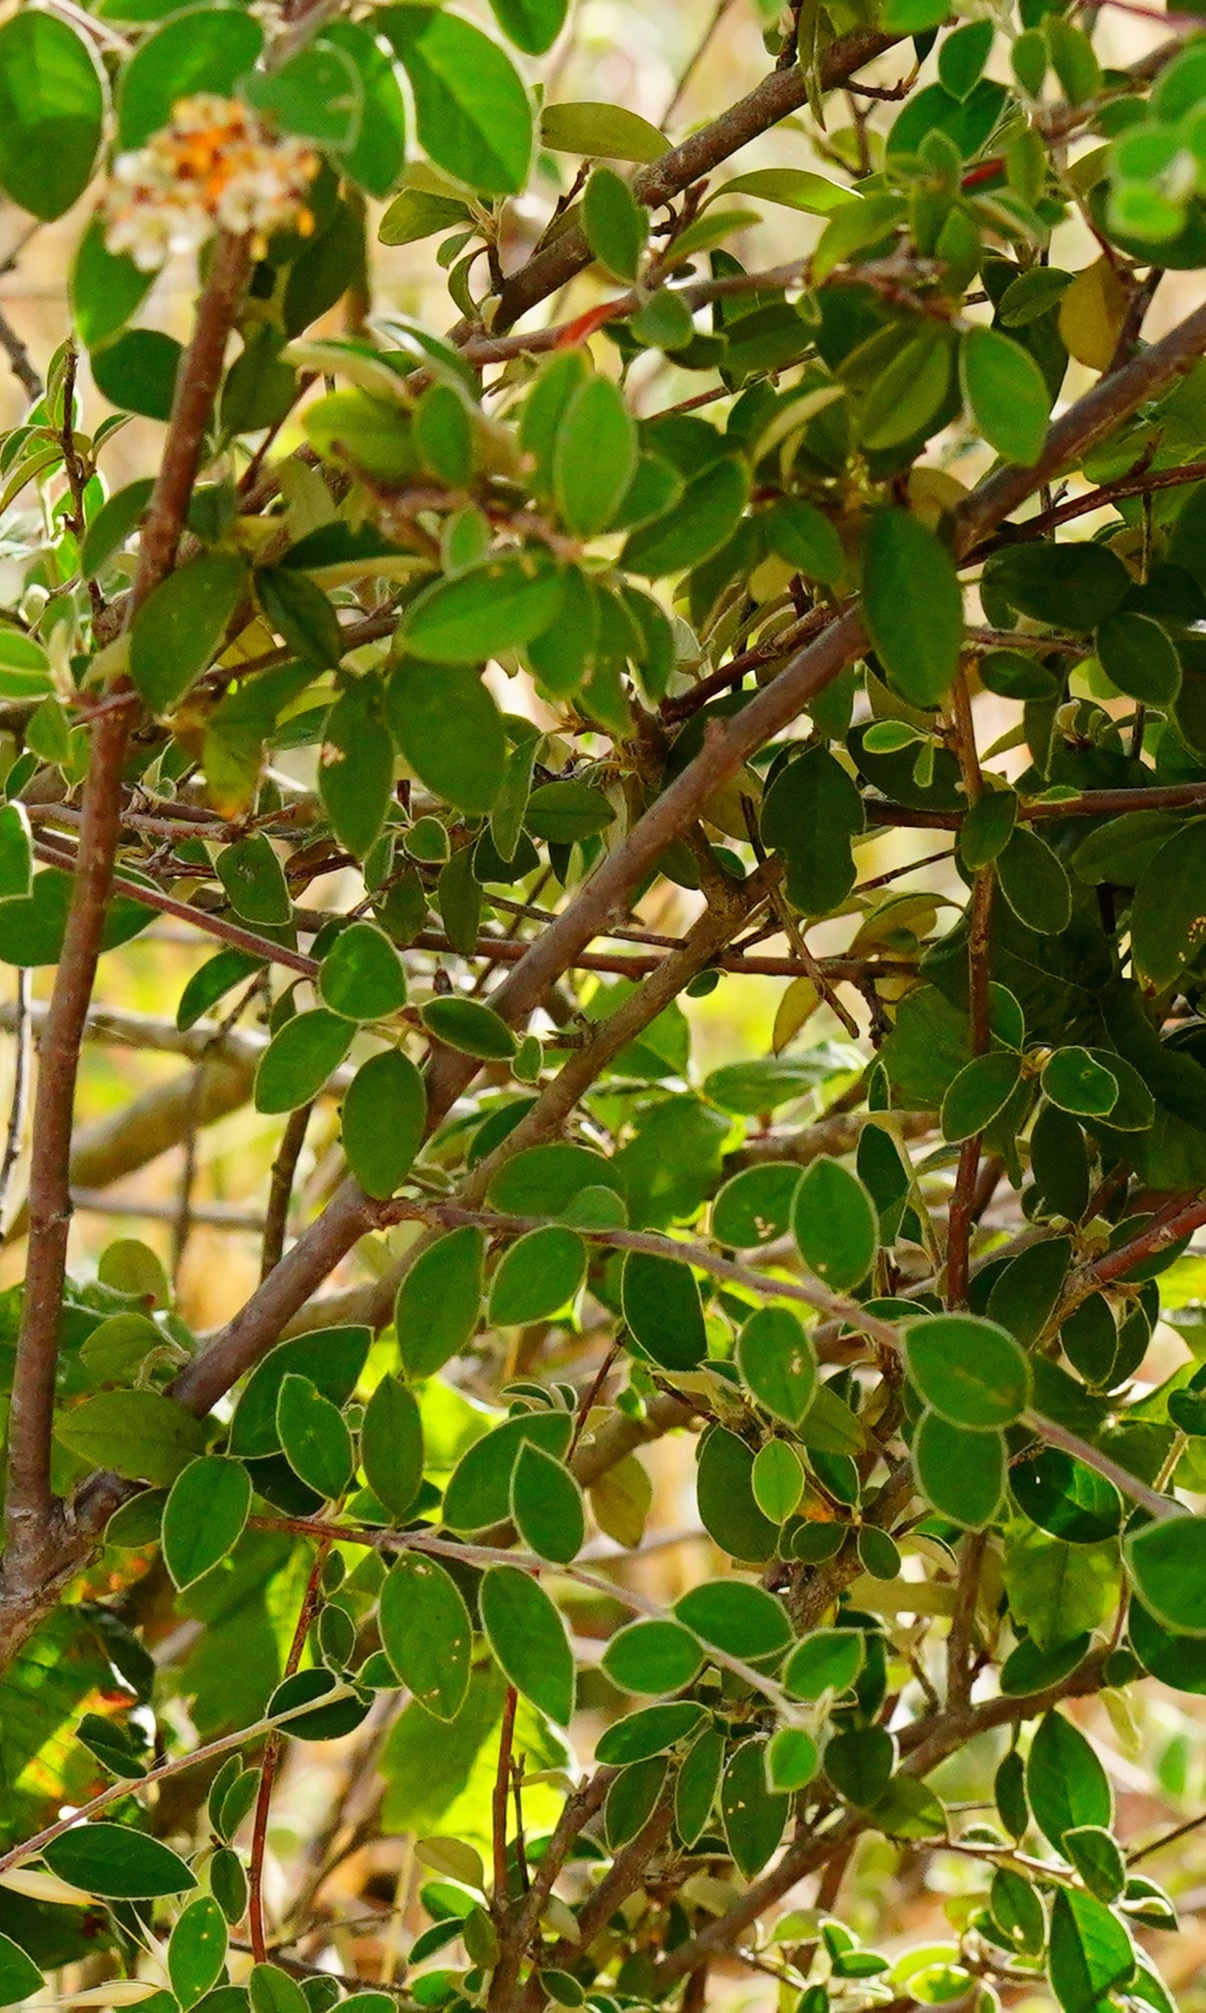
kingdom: Plantae
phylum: Tracheophyta
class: Magnoliopsida
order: Rosales
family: Rosaceae
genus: Cotoneaster
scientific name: Cotoneaster pannosus
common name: Silverleaf cotoneaster
